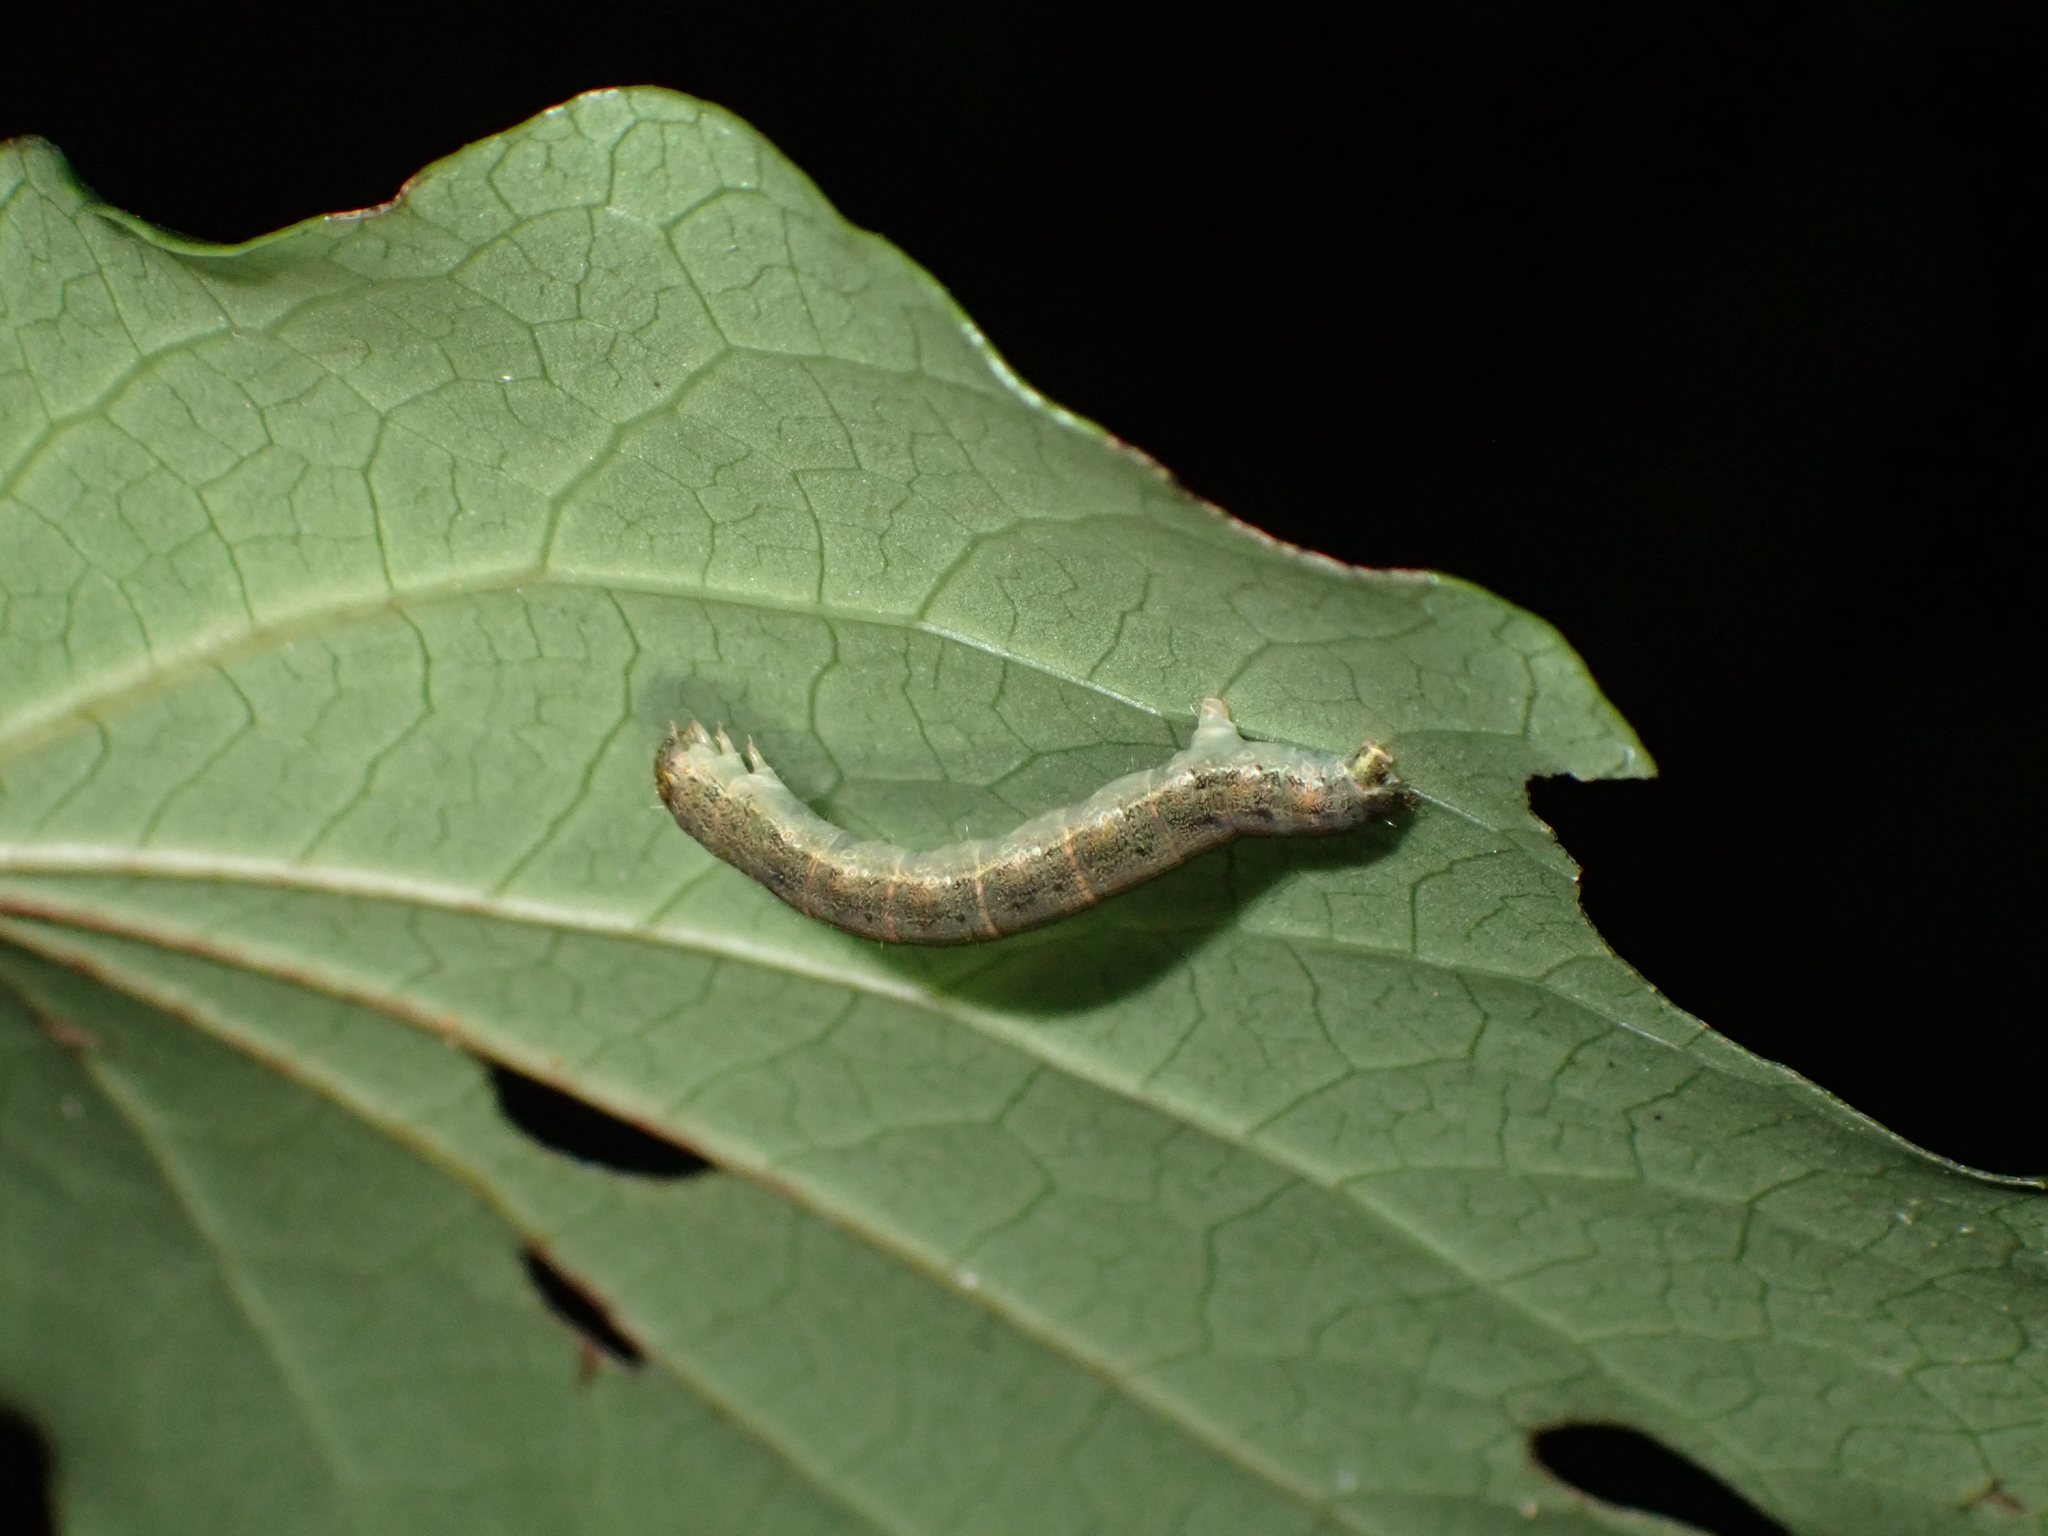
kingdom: Animalia
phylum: Arthropoda
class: Insecta
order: Lepidoptera
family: Geometridae
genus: Cleora
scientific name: Cleora scriptaria
